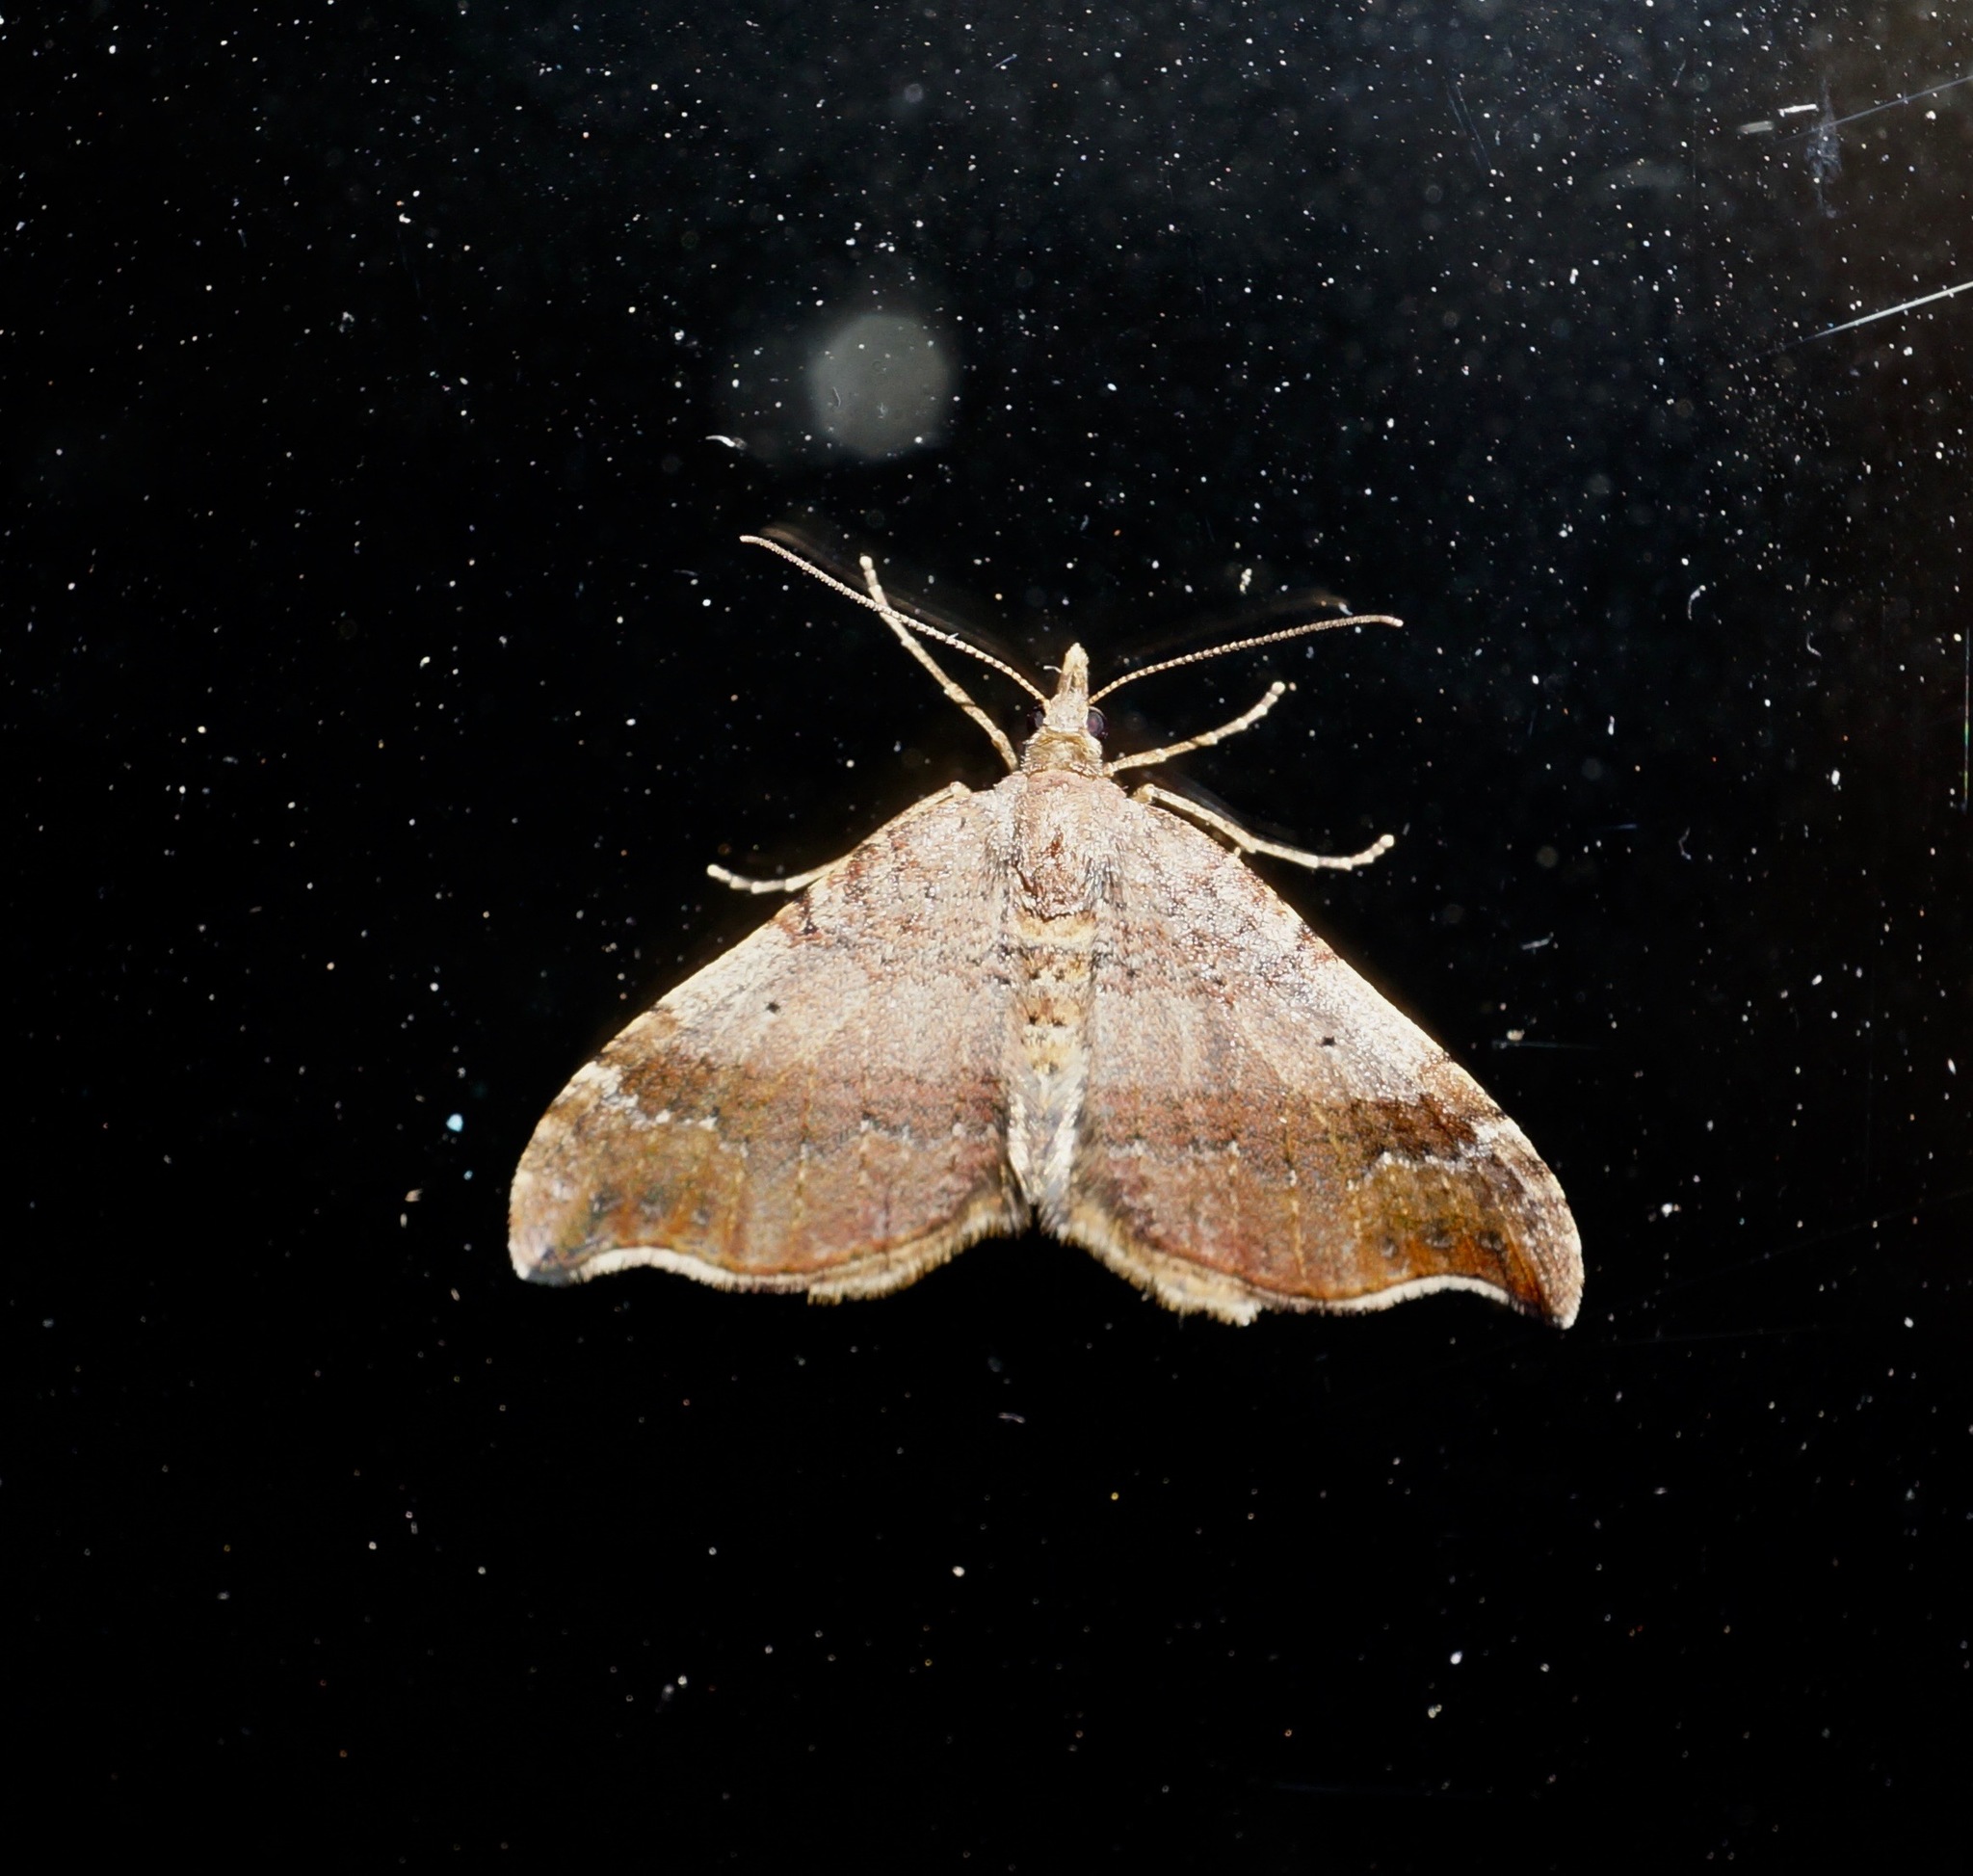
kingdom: Animalia
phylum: Arthropoda
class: Insecta
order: Lepidoptera
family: Geometridae
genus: Homodotis
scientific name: Homodotis megaspilata
